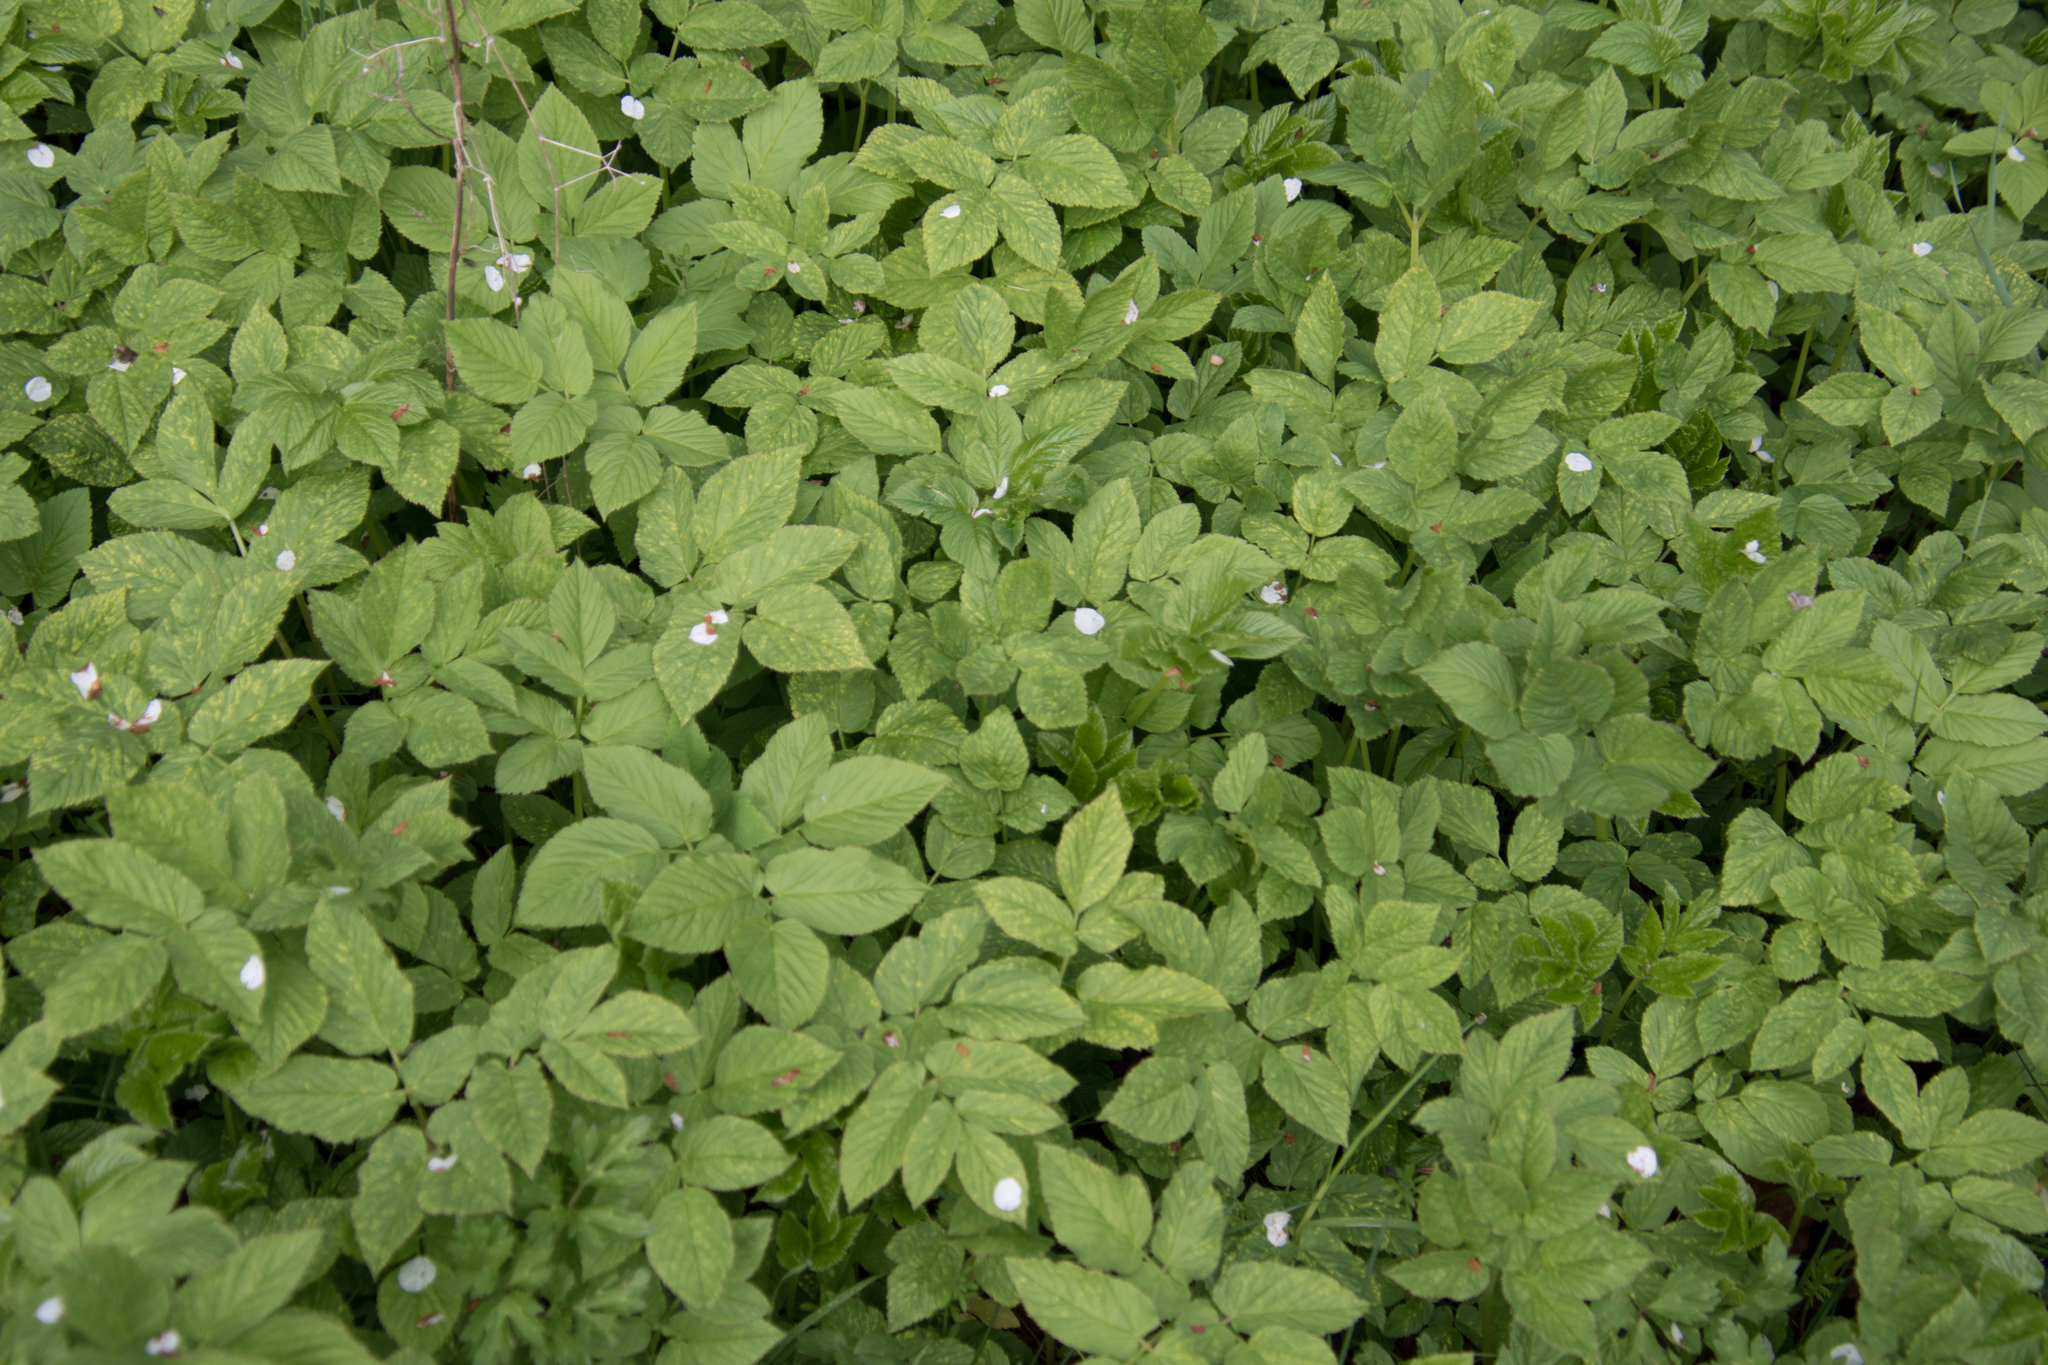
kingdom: Plantae
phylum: Tracheophyta
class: Magnoliopsida
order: Apiales
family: Apiaceae
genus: Aegopodium
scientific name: Aegopodium podagraria
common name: Ground-elder
